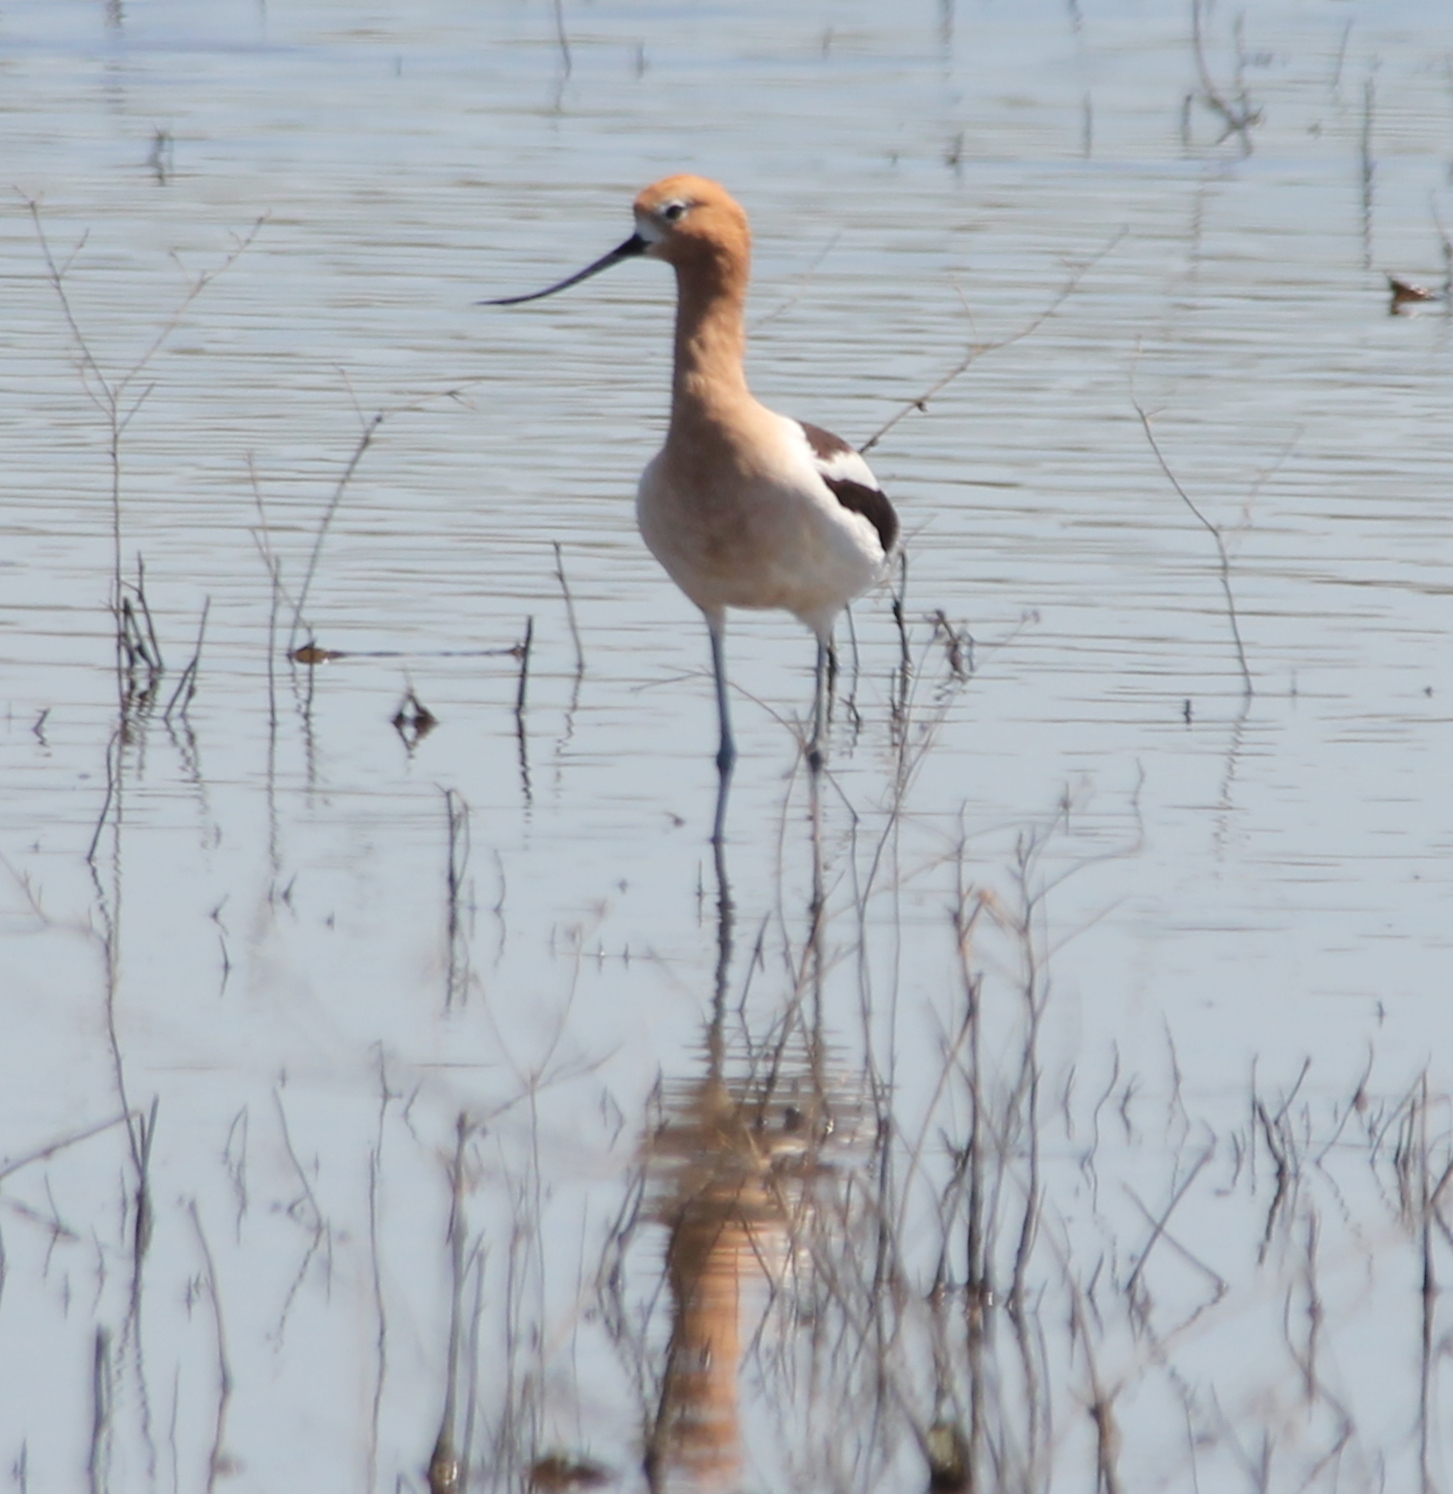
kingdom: Animalia
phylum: Chordata
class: Aves
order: Charadriiformes
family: Recurvirostridae
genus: Recurvirostra
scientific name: Recurvirostra americana
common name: American avocet
